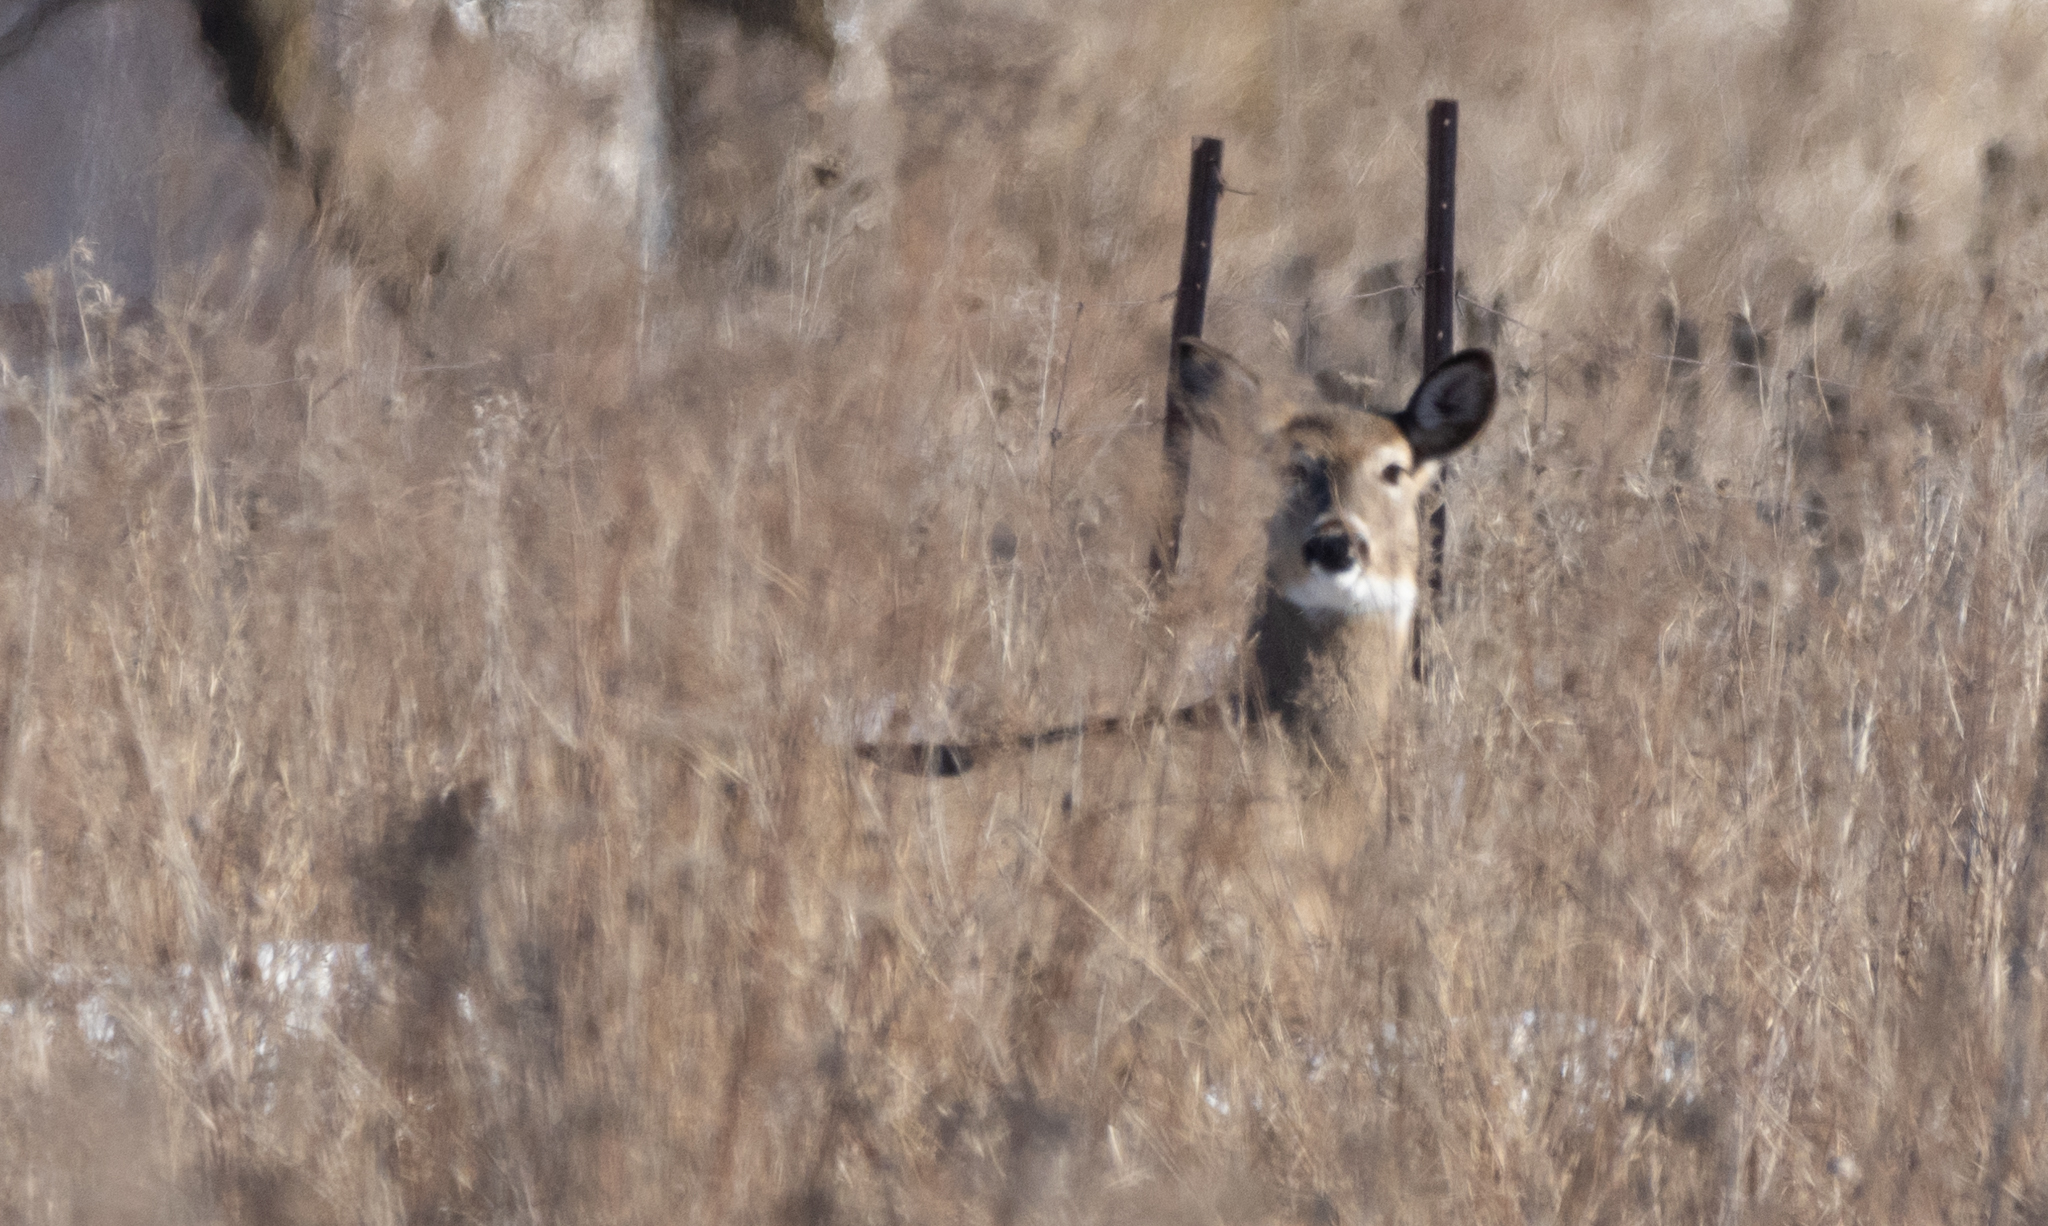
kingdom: Animalia
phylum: Chordata
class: Mammalia
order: Artiodactyla
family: Cervidae
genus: Odocoileus
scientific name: Odocoileus virginianus
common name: White-tailed deer
